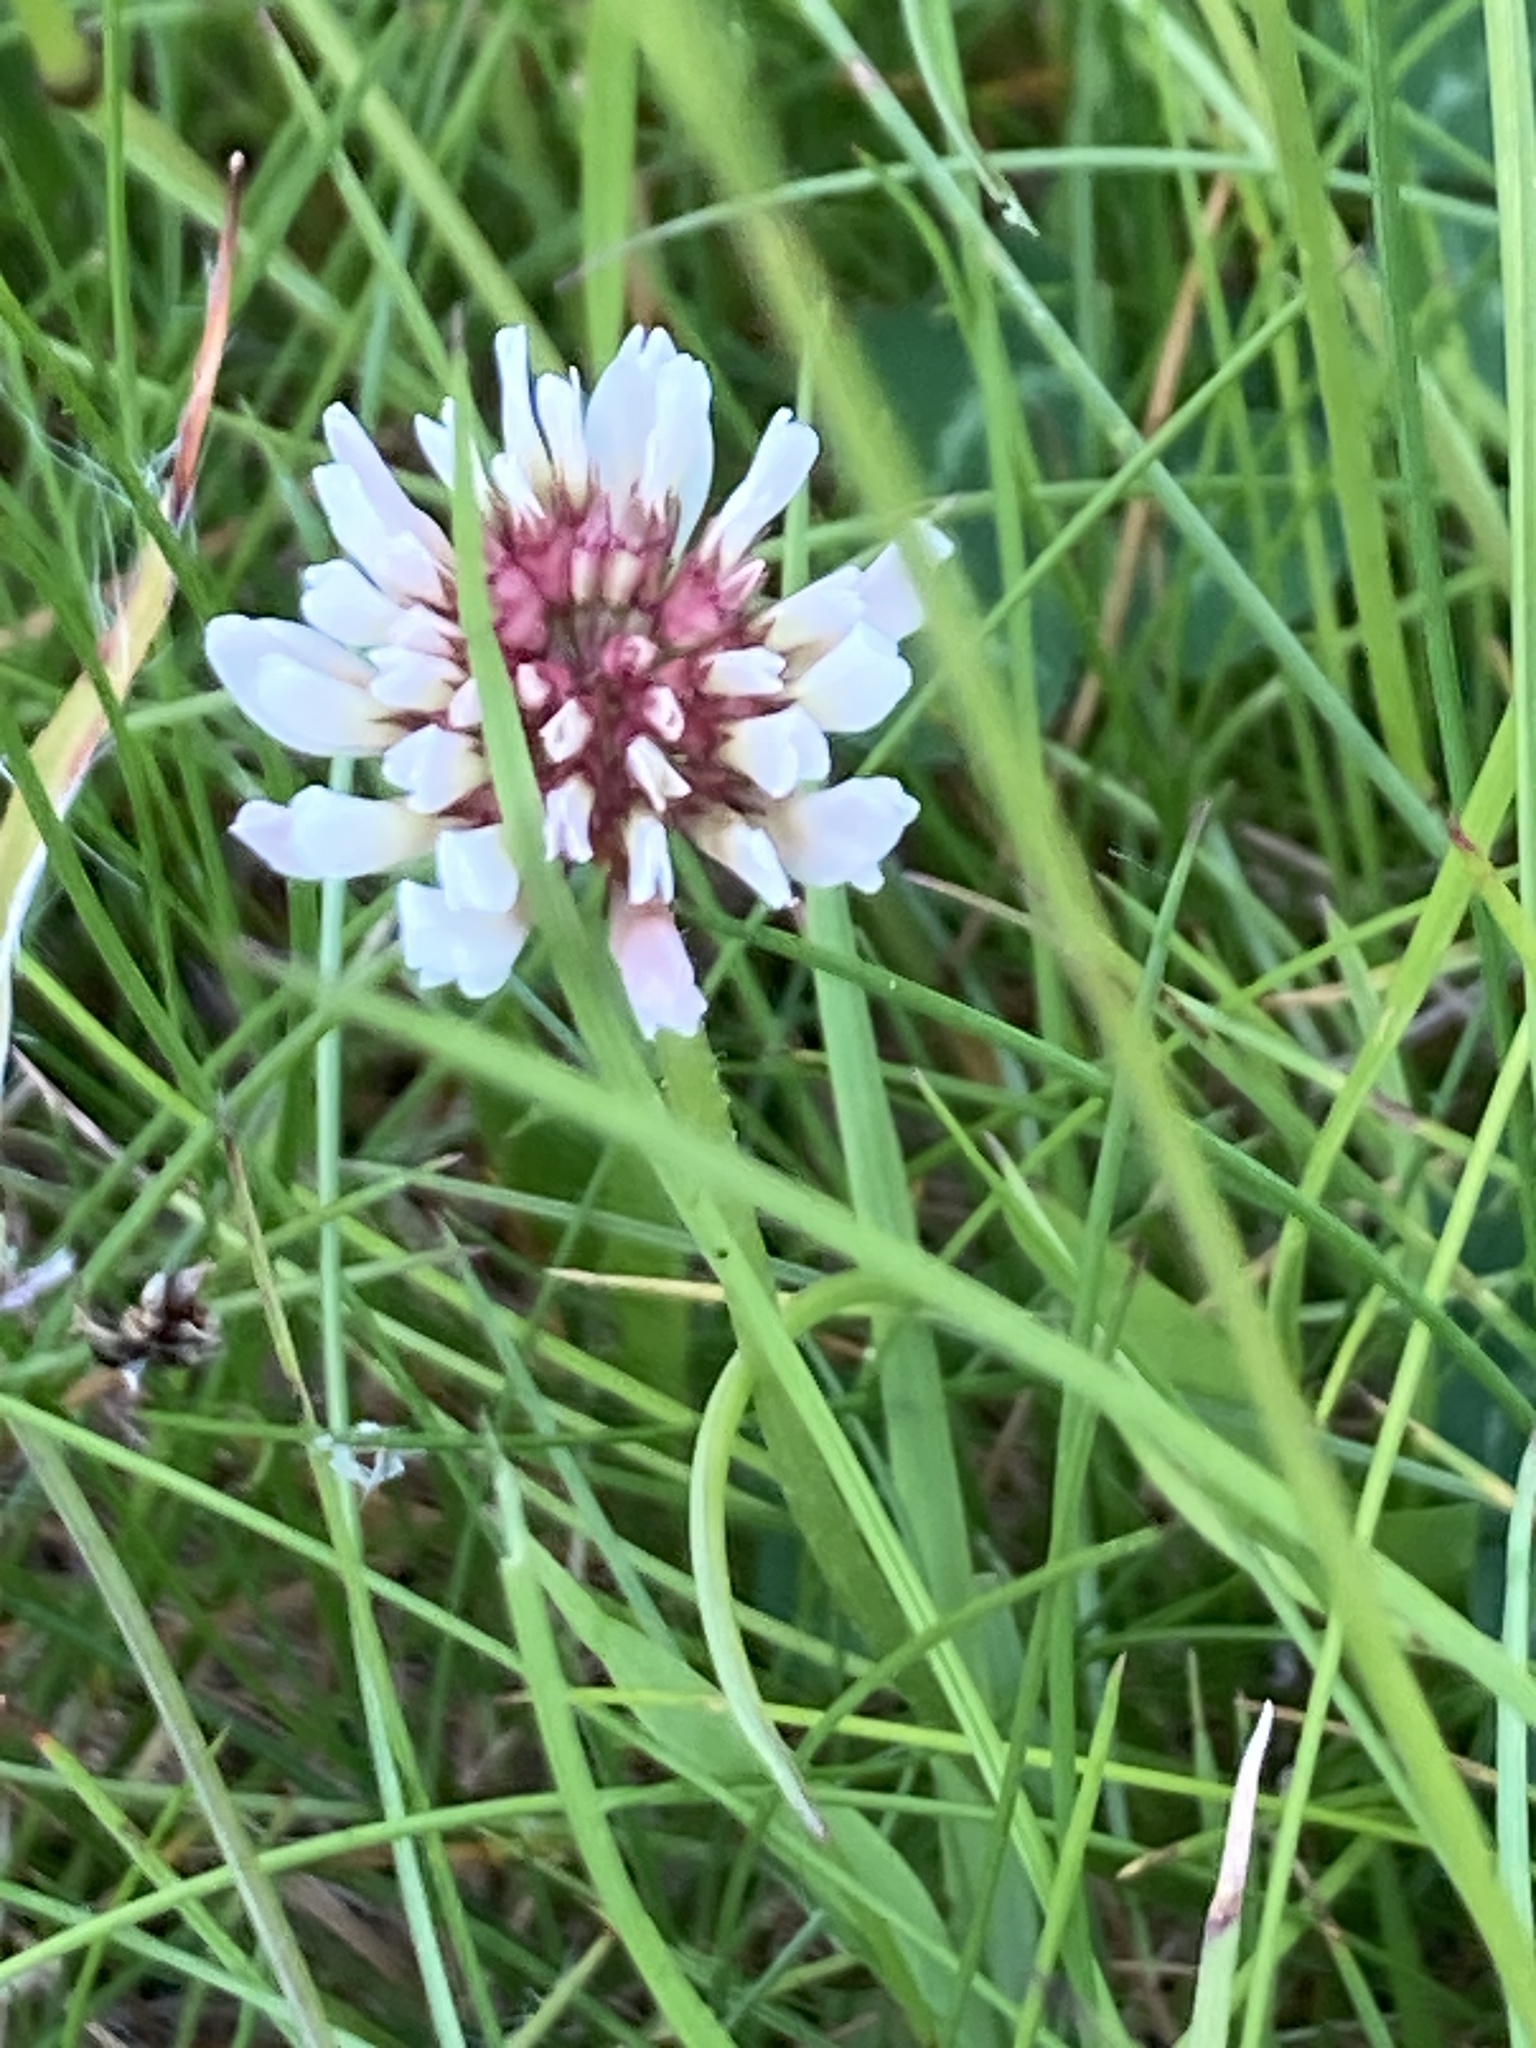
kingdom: Plantae
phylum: Tracheophyta
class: Magnoliopsida
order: Fabales
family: Fabaceae
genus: Trifolium
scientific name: Trifolium repens
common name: White clover
